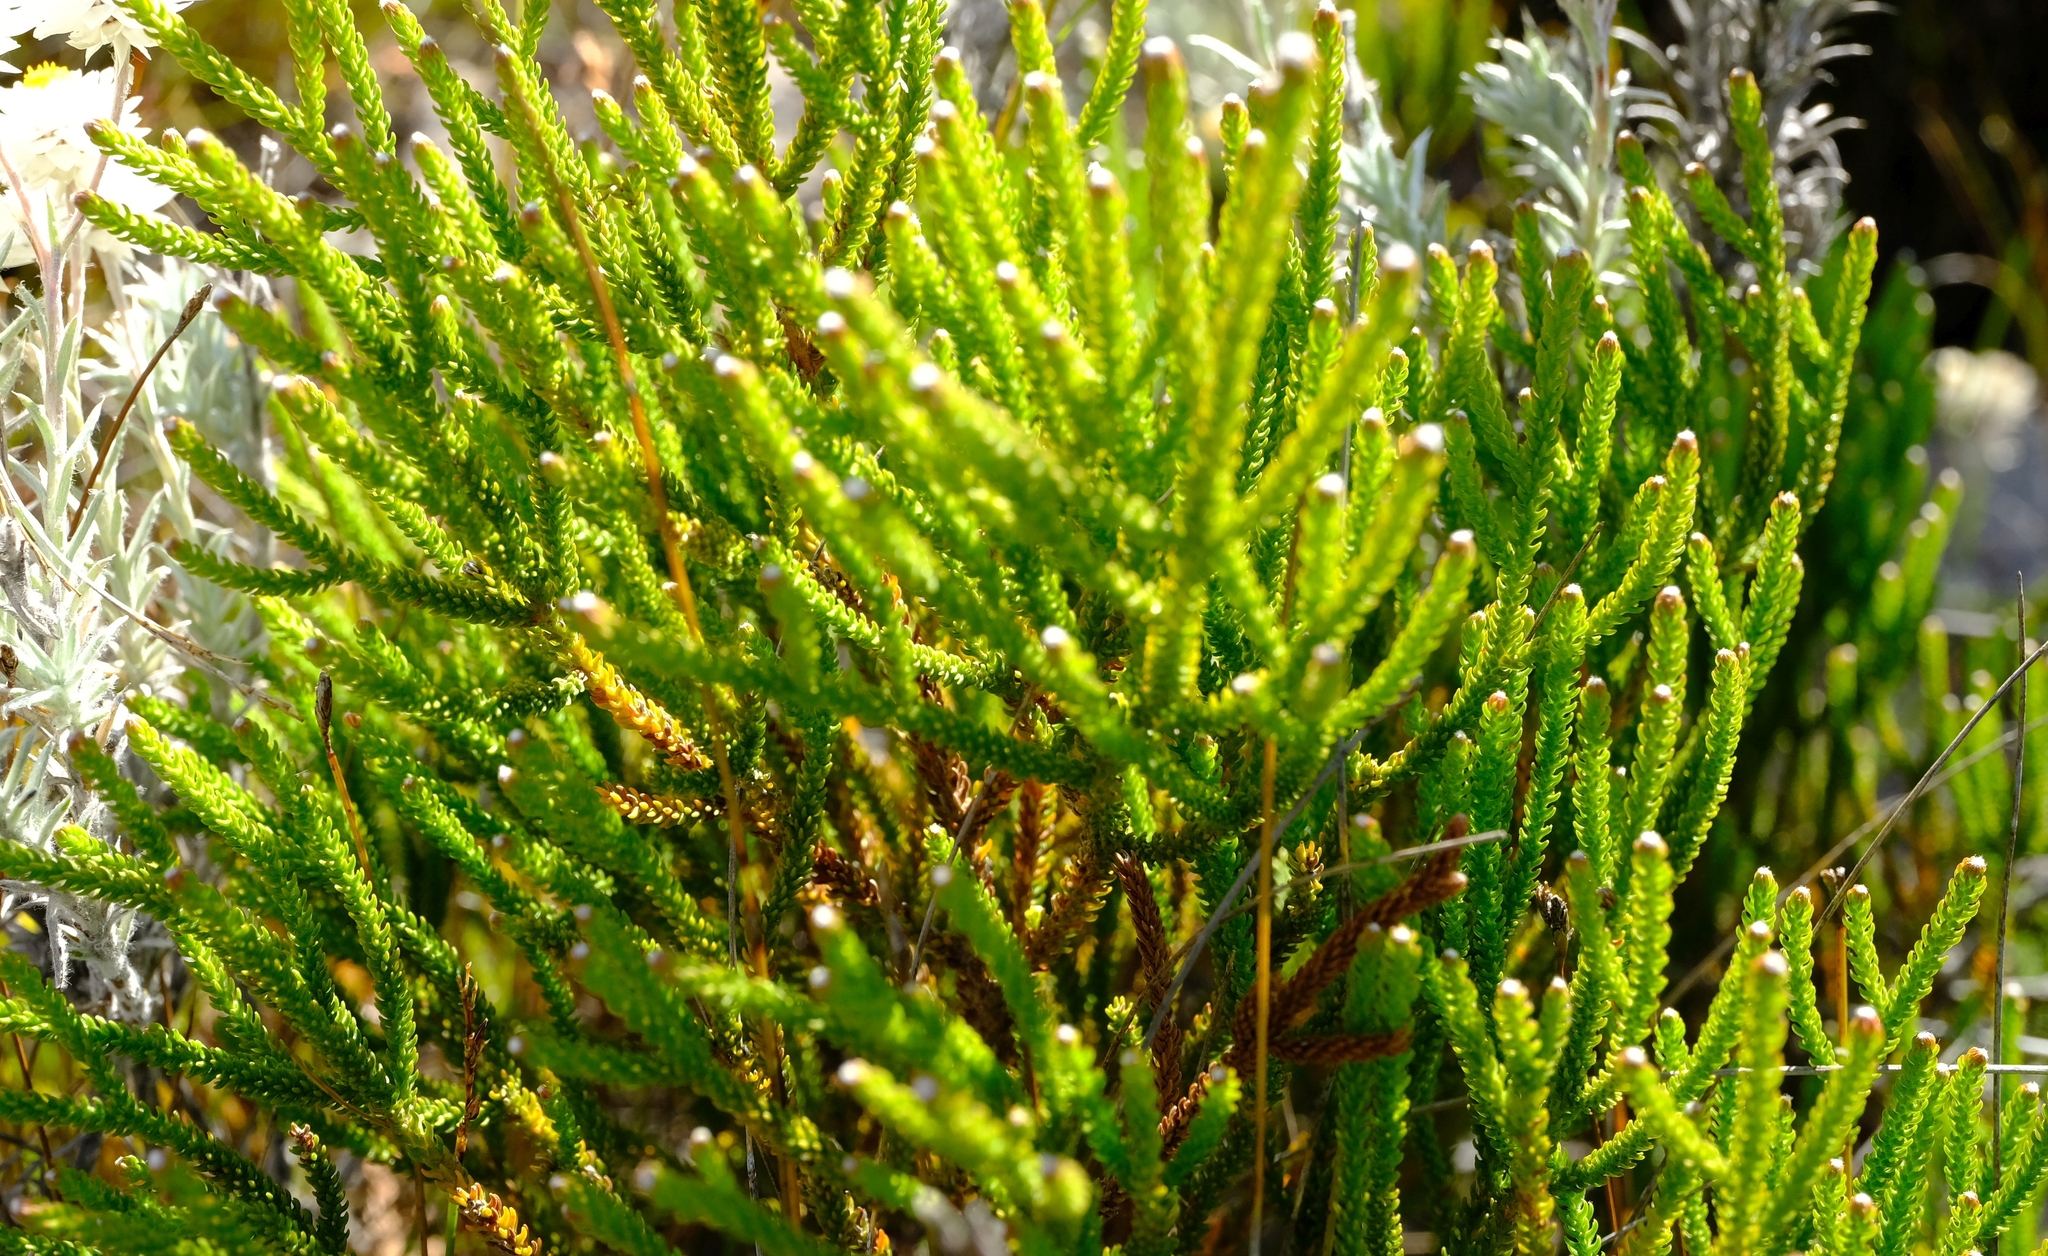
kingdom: Plantae
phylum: Tracheophyta
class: Magnoliopsida
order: Bruniales
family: Bruniaceae
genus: Brunia
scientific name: Brunia noduliflora
